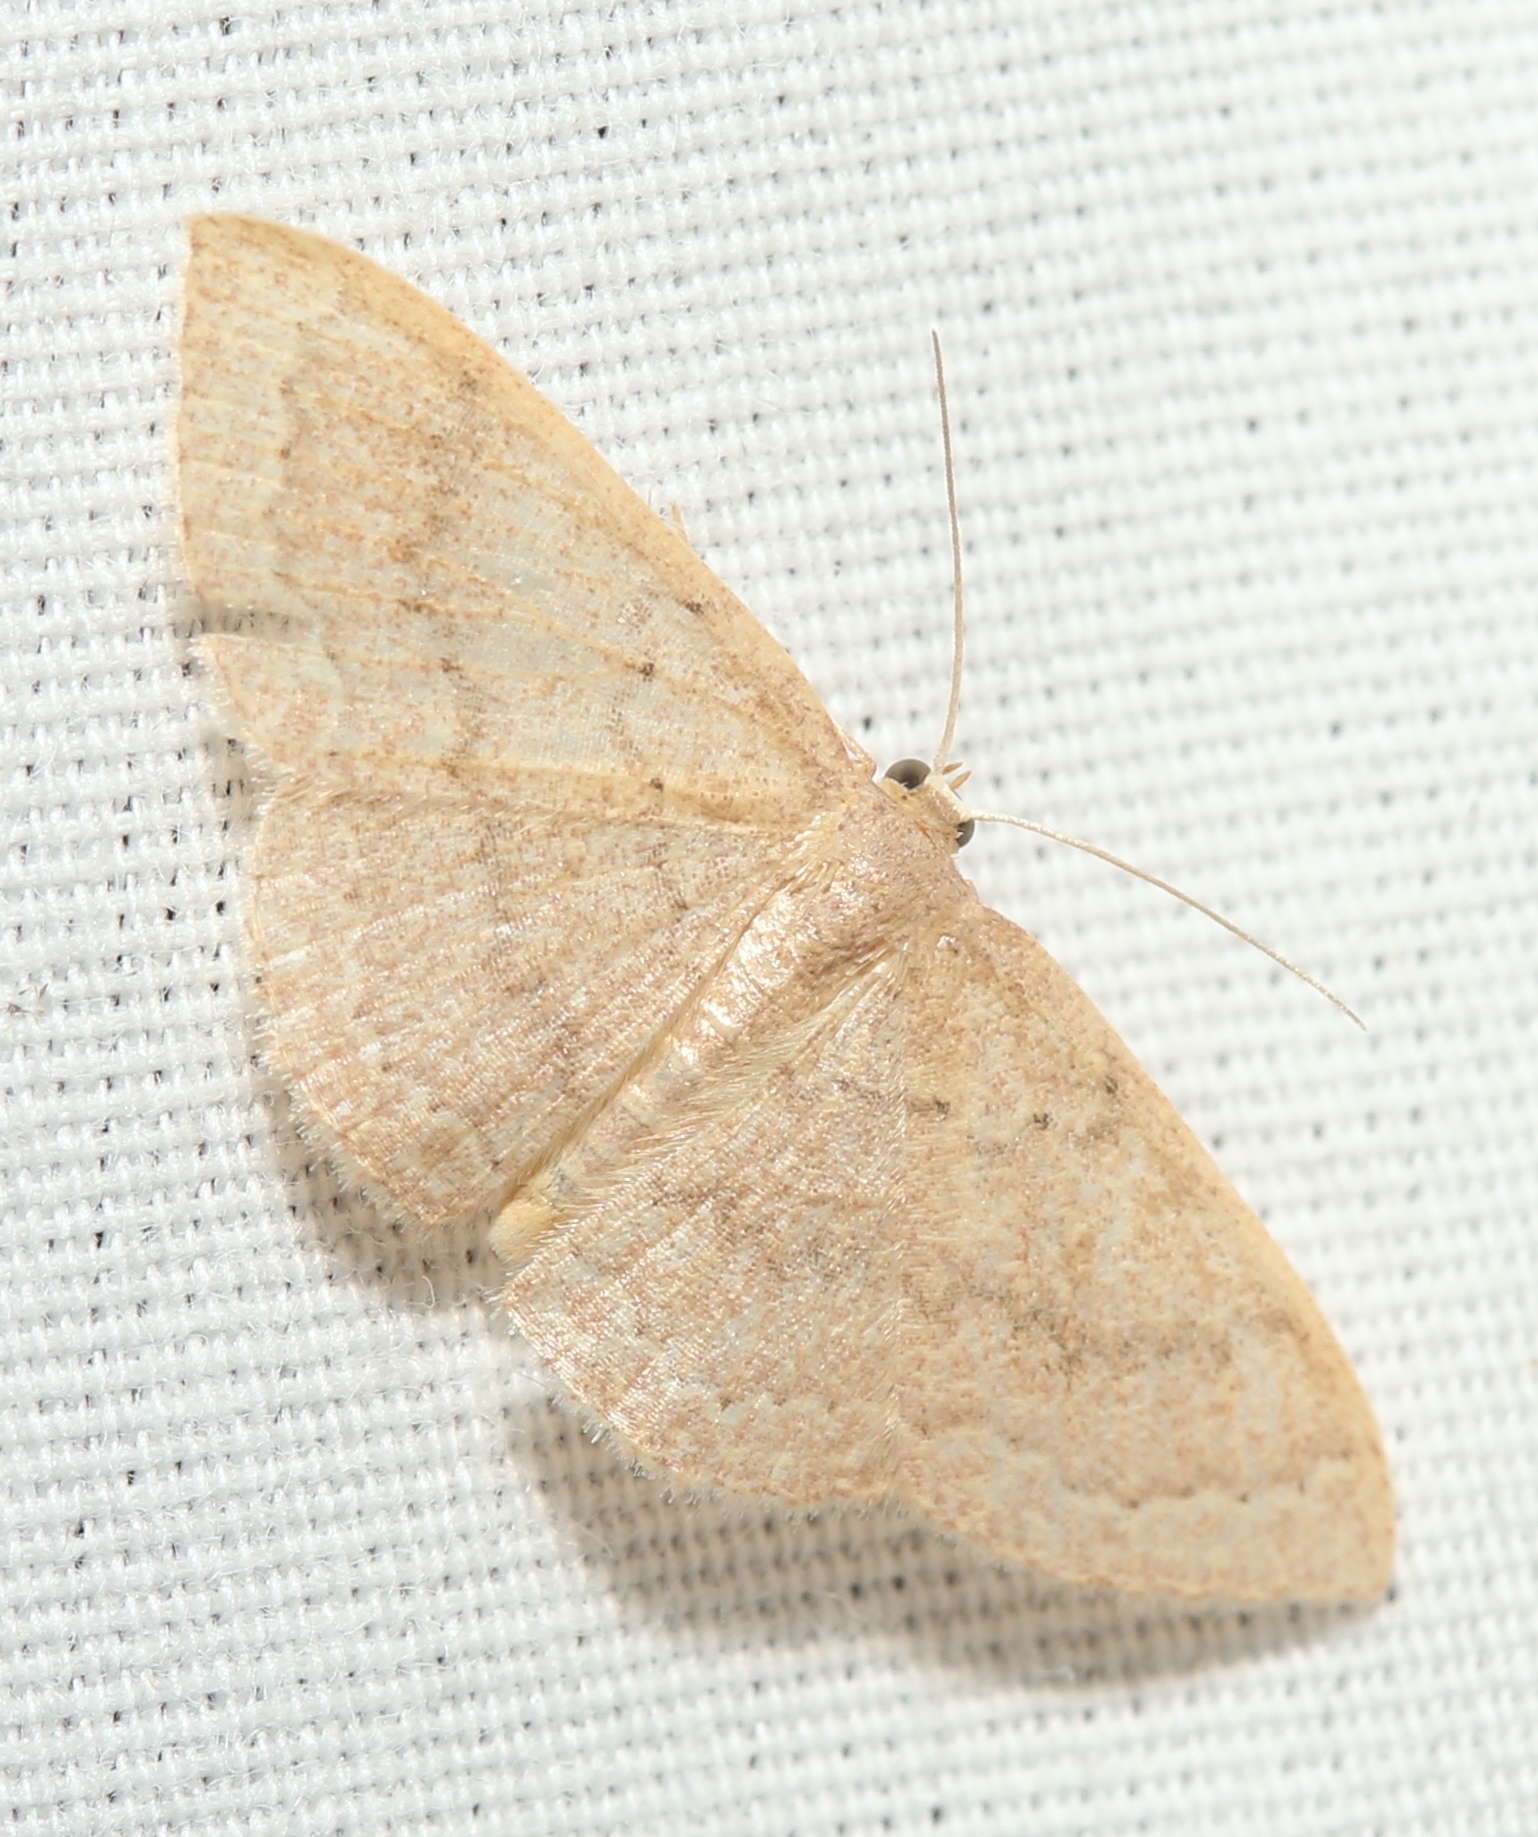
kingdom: Animalia
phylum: Arthropoda
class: Insecta
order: Lepidoptera
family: Geometridae
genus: Pleuroprucha
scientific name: Pleuroprucha insulsaria
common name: Common tan wave
